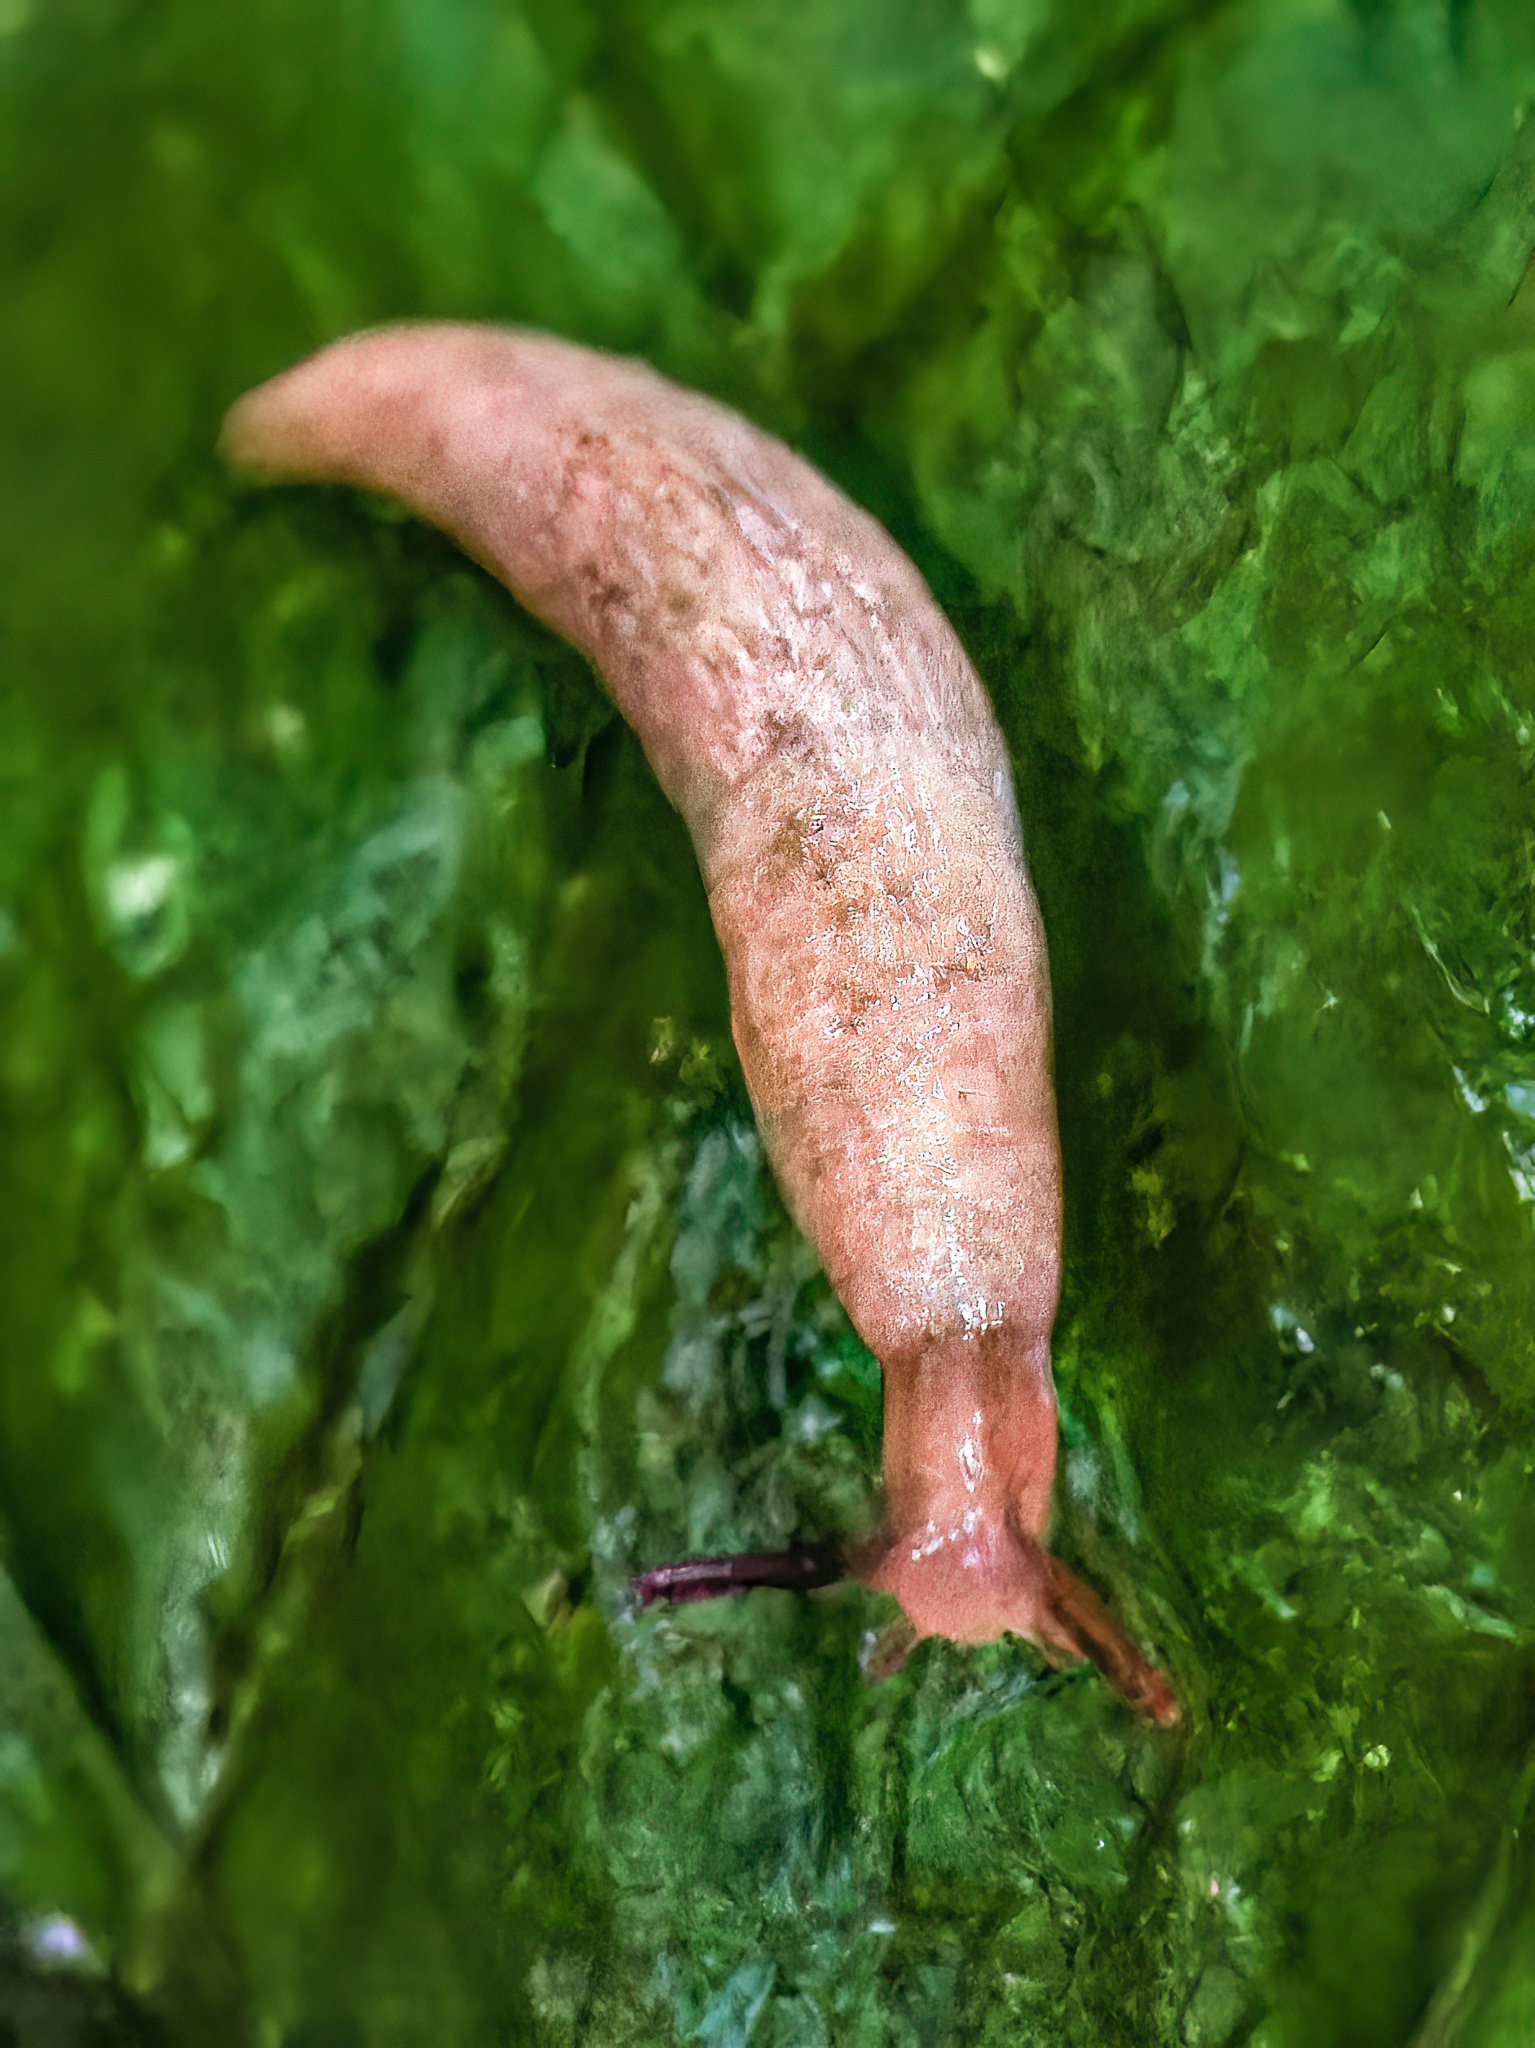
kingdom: Animalia
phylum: Mollusca
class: Gastropoda
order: Stylommatophora
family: Agriolimacidae
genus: Deroceras
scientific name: Deroceras reticulatum
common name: Gray field slug
